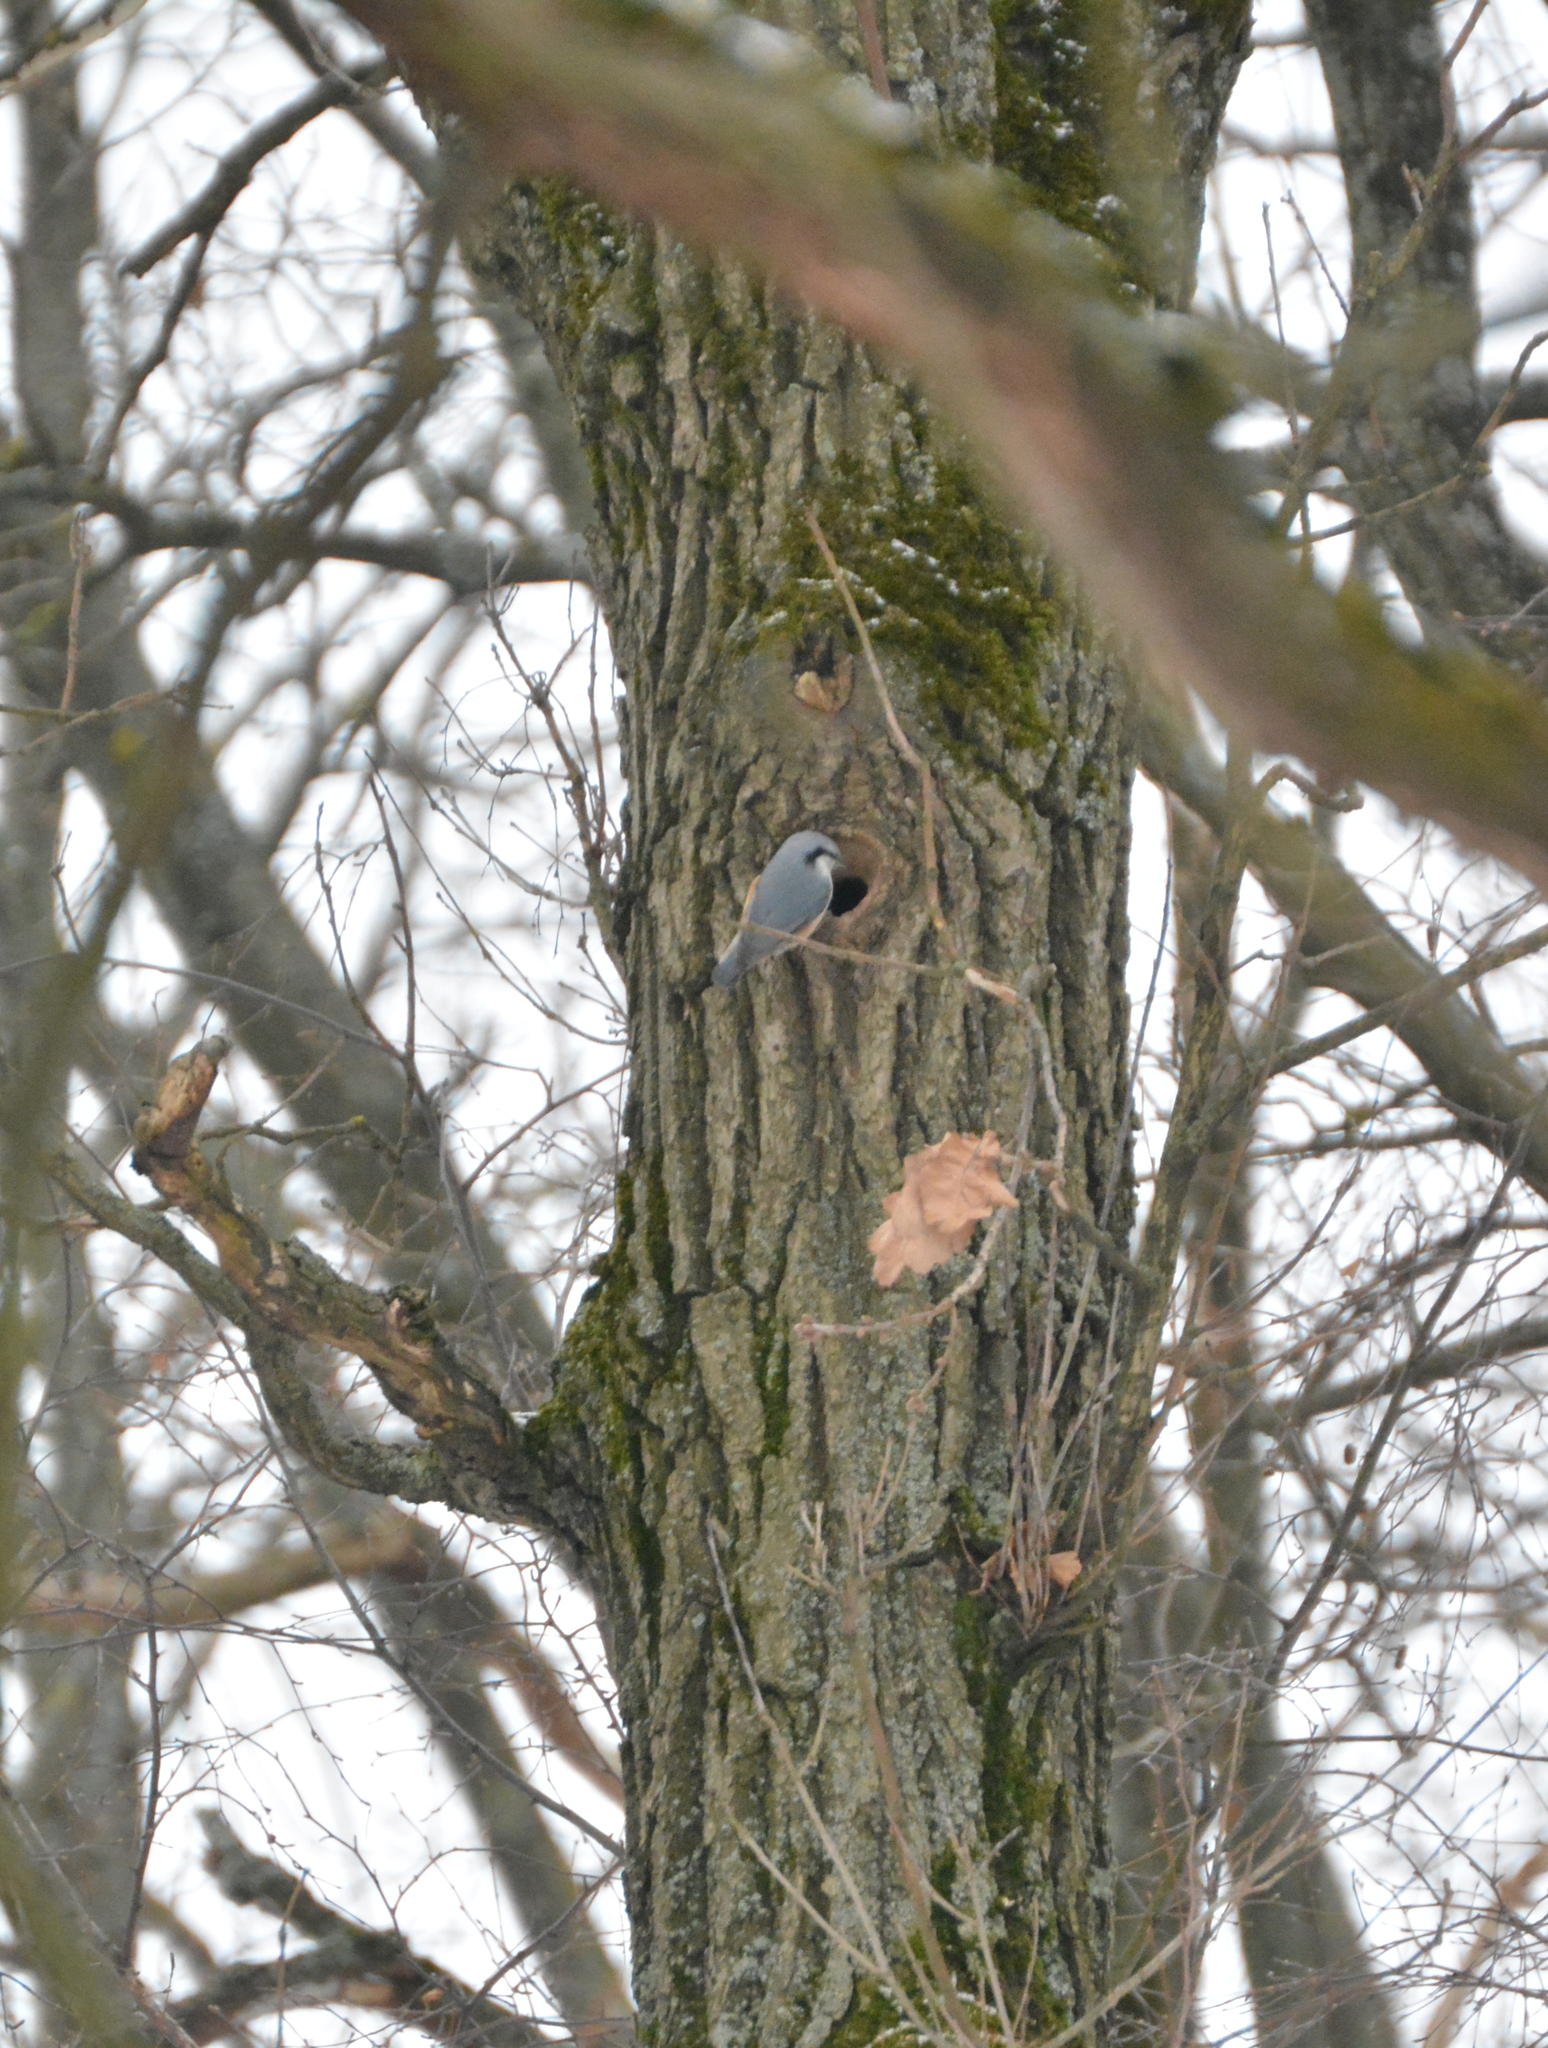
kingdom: Animalia
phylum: Chordata
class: Aves
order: Passeriformes
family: Sittidae
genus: Sitta
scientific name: Sitta europaea
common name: Eurasian nuthatch
